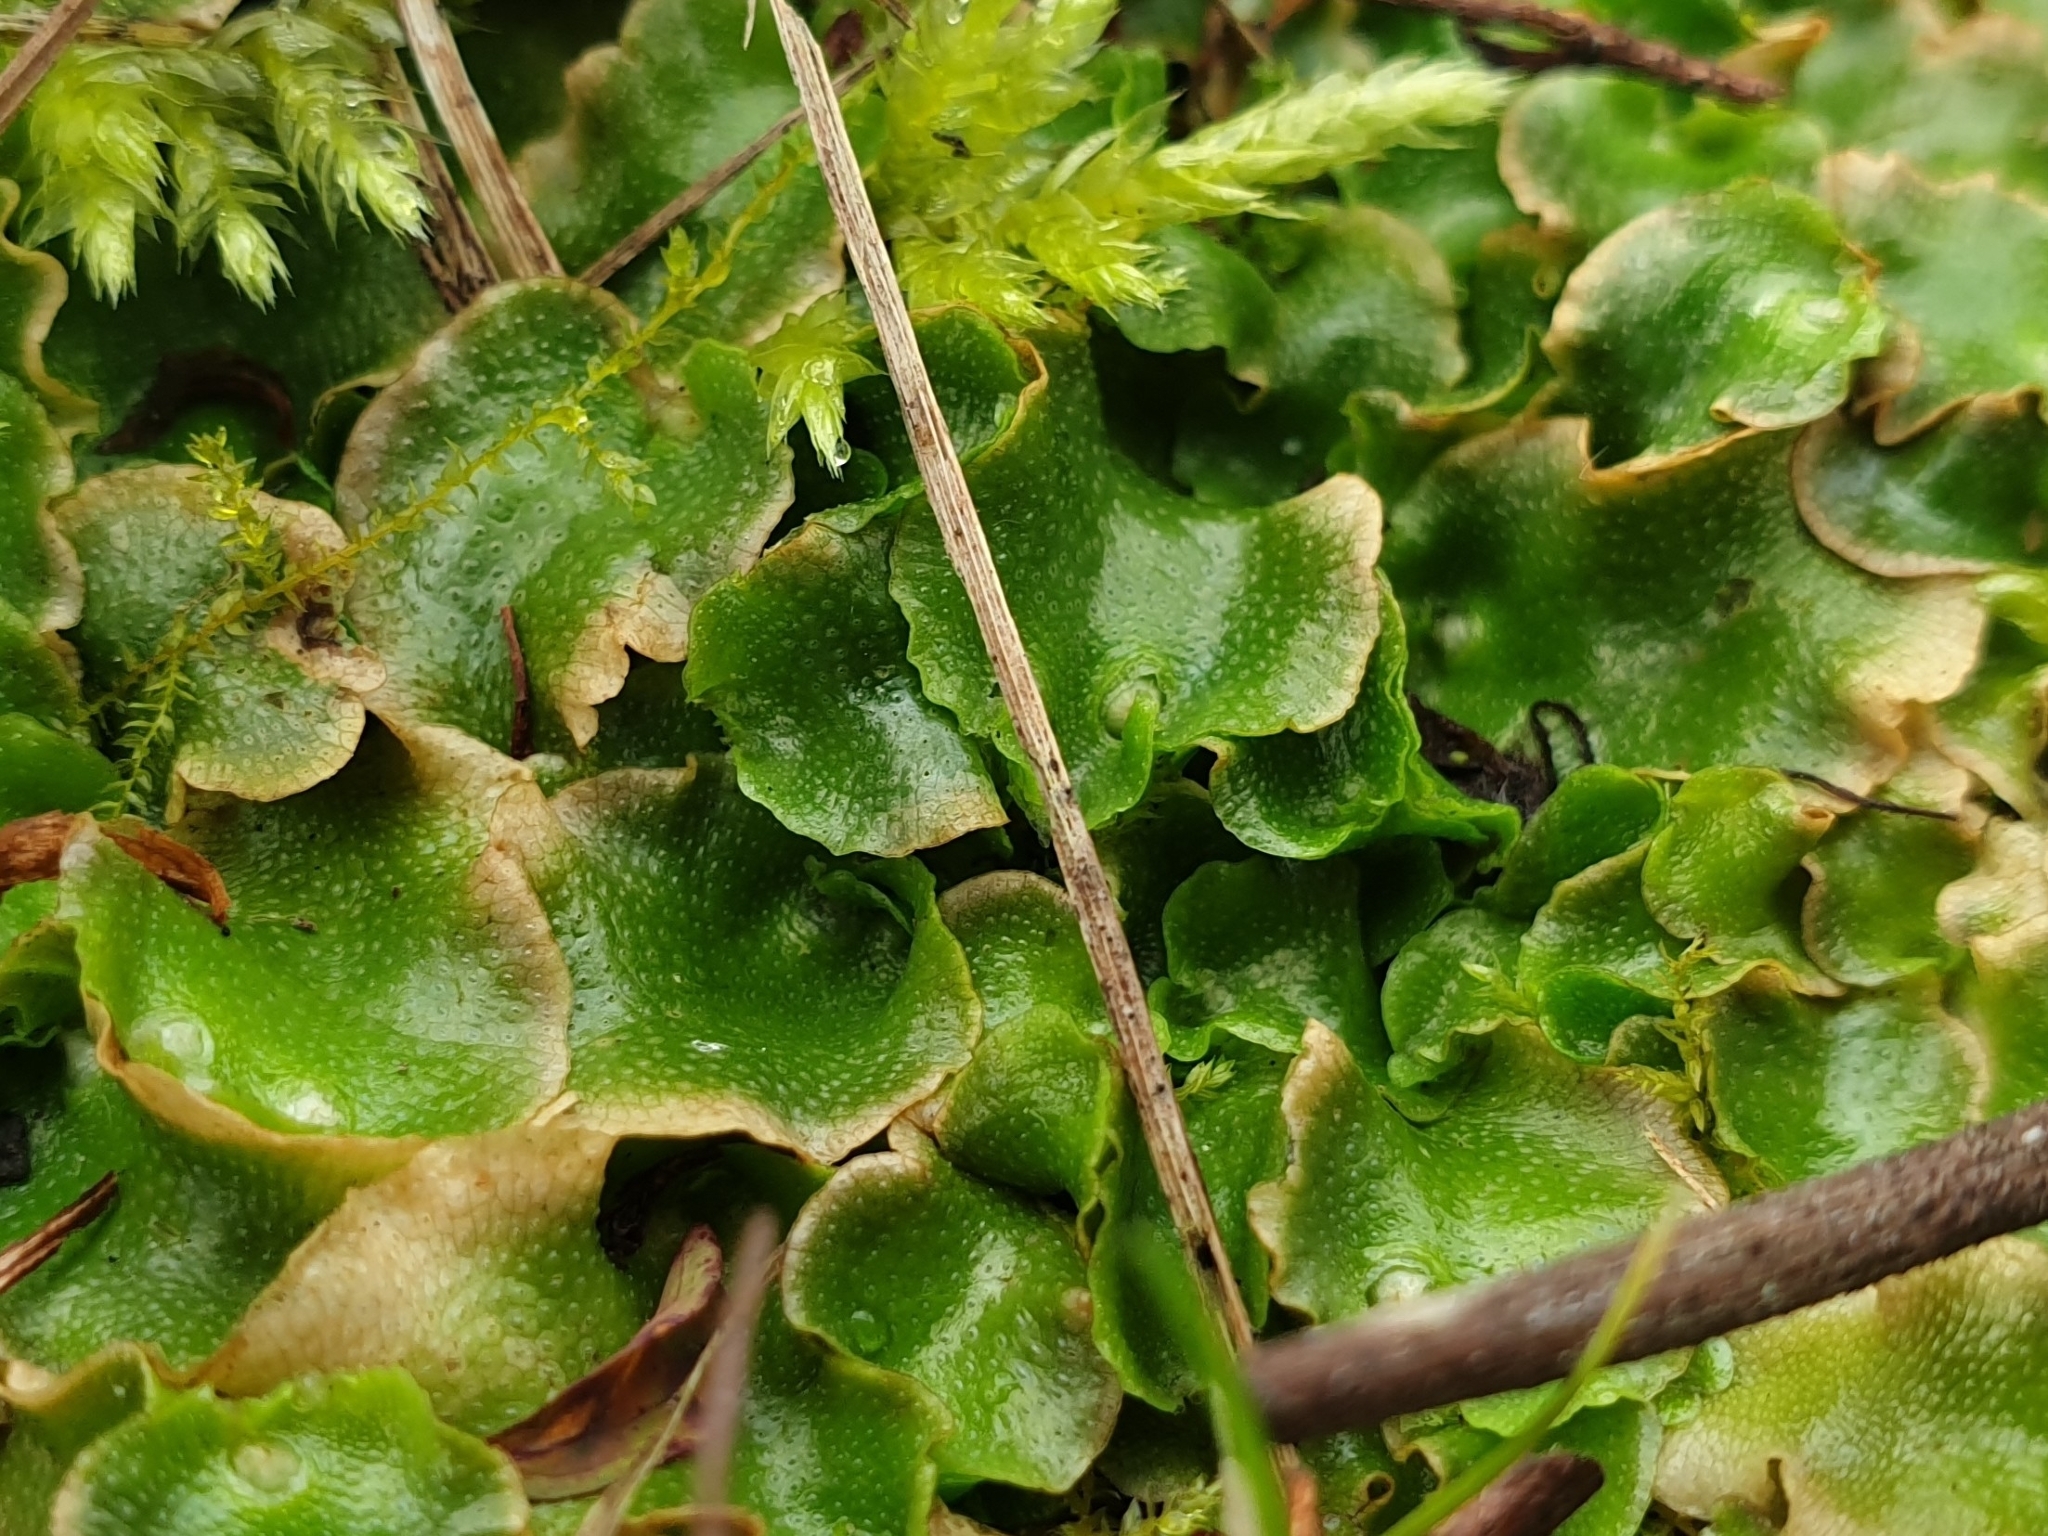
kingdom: Plantae
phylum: Marchantiophyta
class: Marchantiopsida
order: Lunulariales
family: Lunulariaceae
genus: Lunularia
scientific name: Lunularia cruciata
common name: Crescent-cup liverwort
